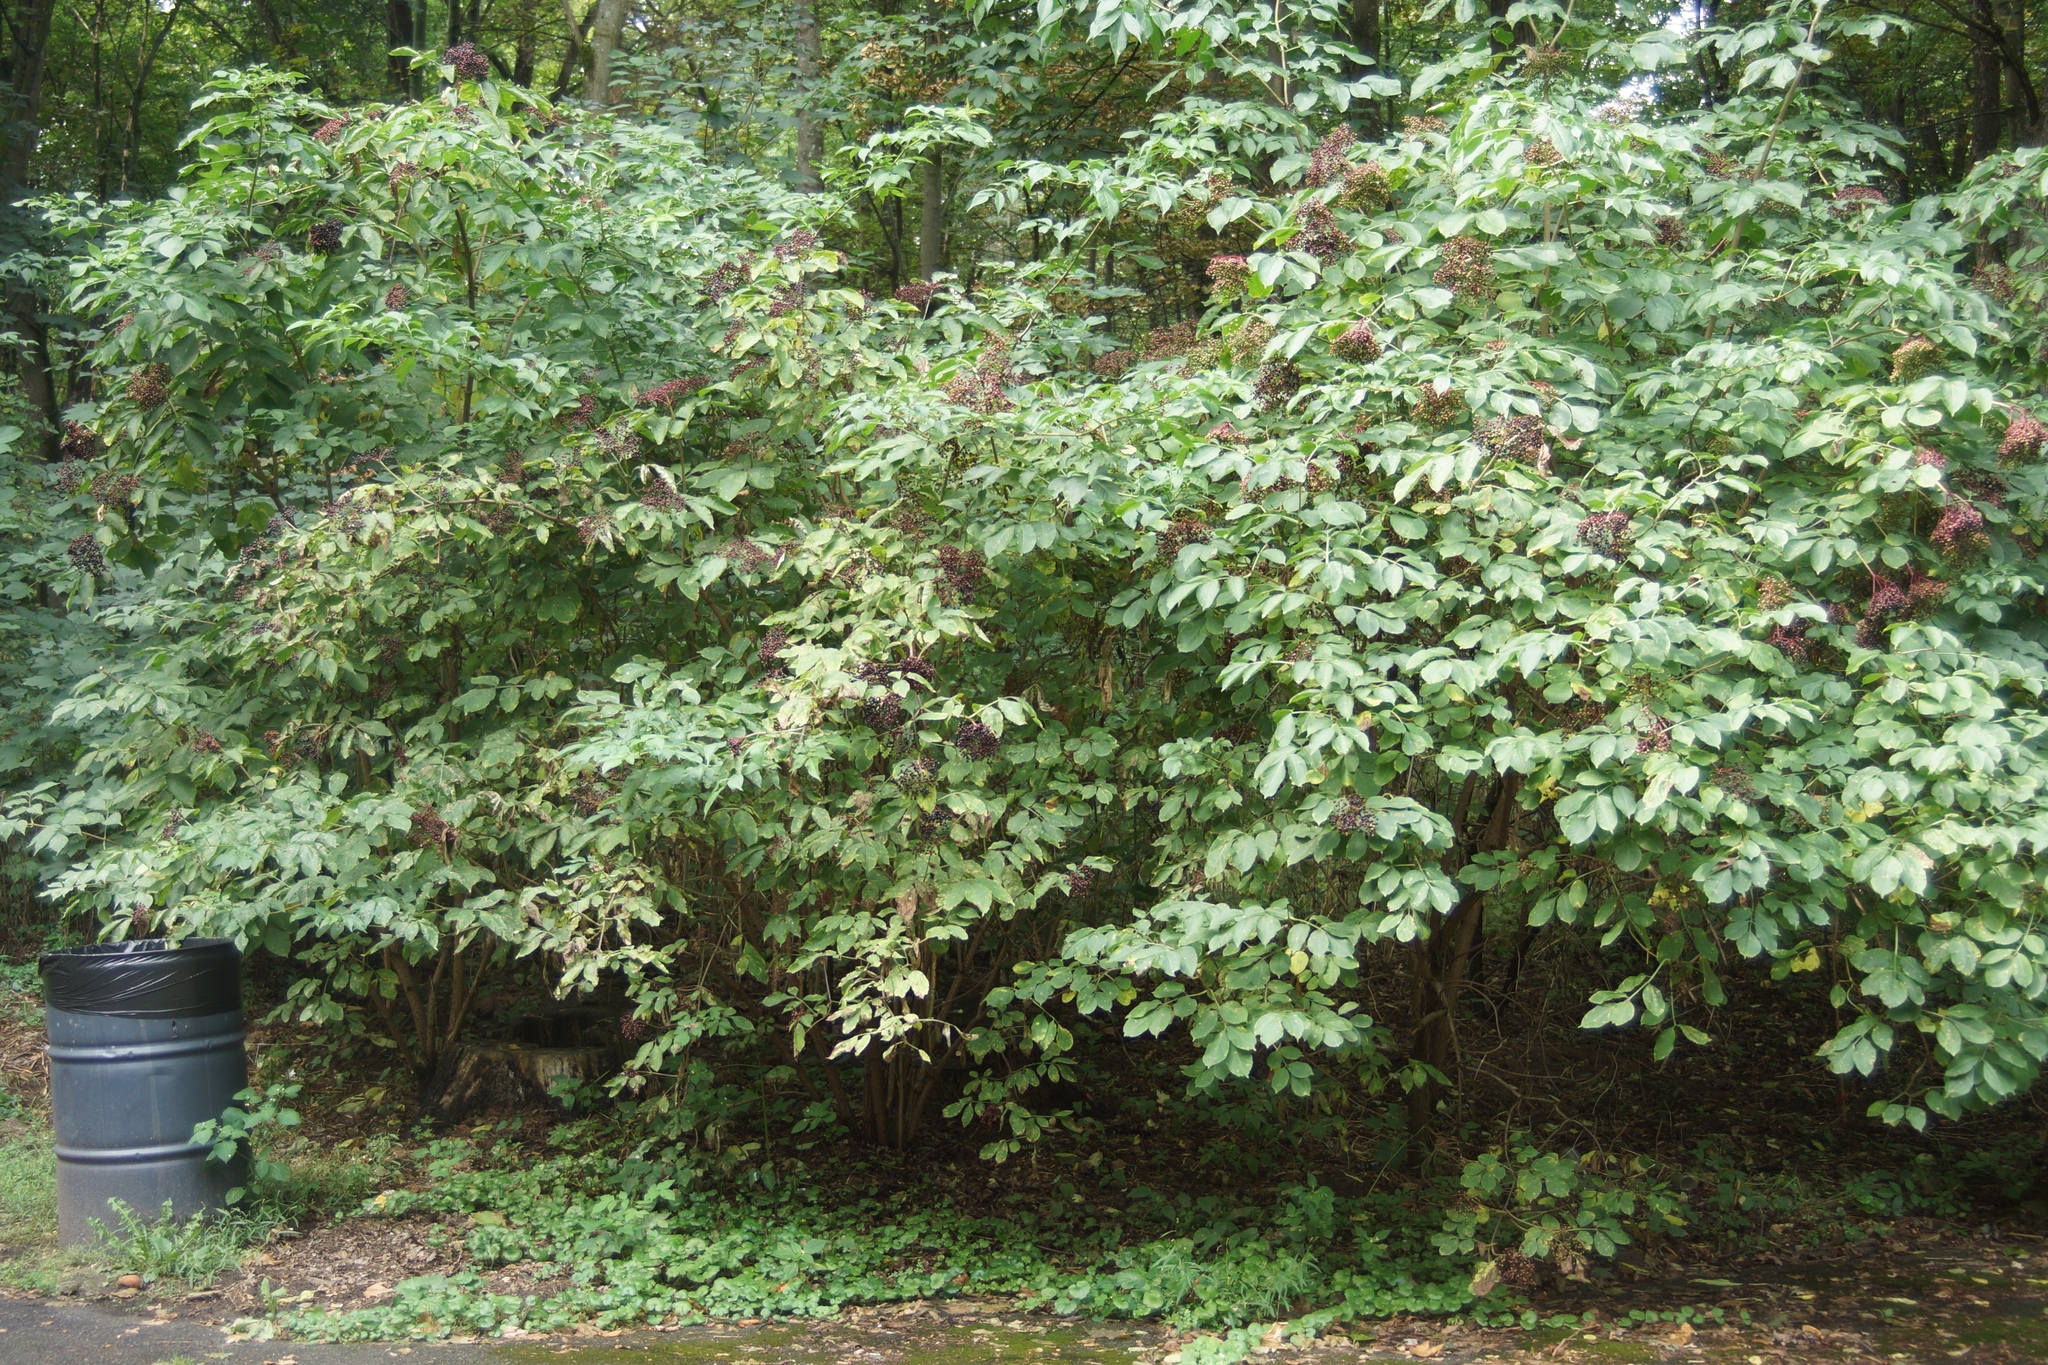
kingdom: Plantae
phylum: Tracheophyta
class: Magnoliopsida
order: Dipsacales
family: Viburnaceae
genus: Sambucus
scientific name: Sambucus nigra
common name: Elder
